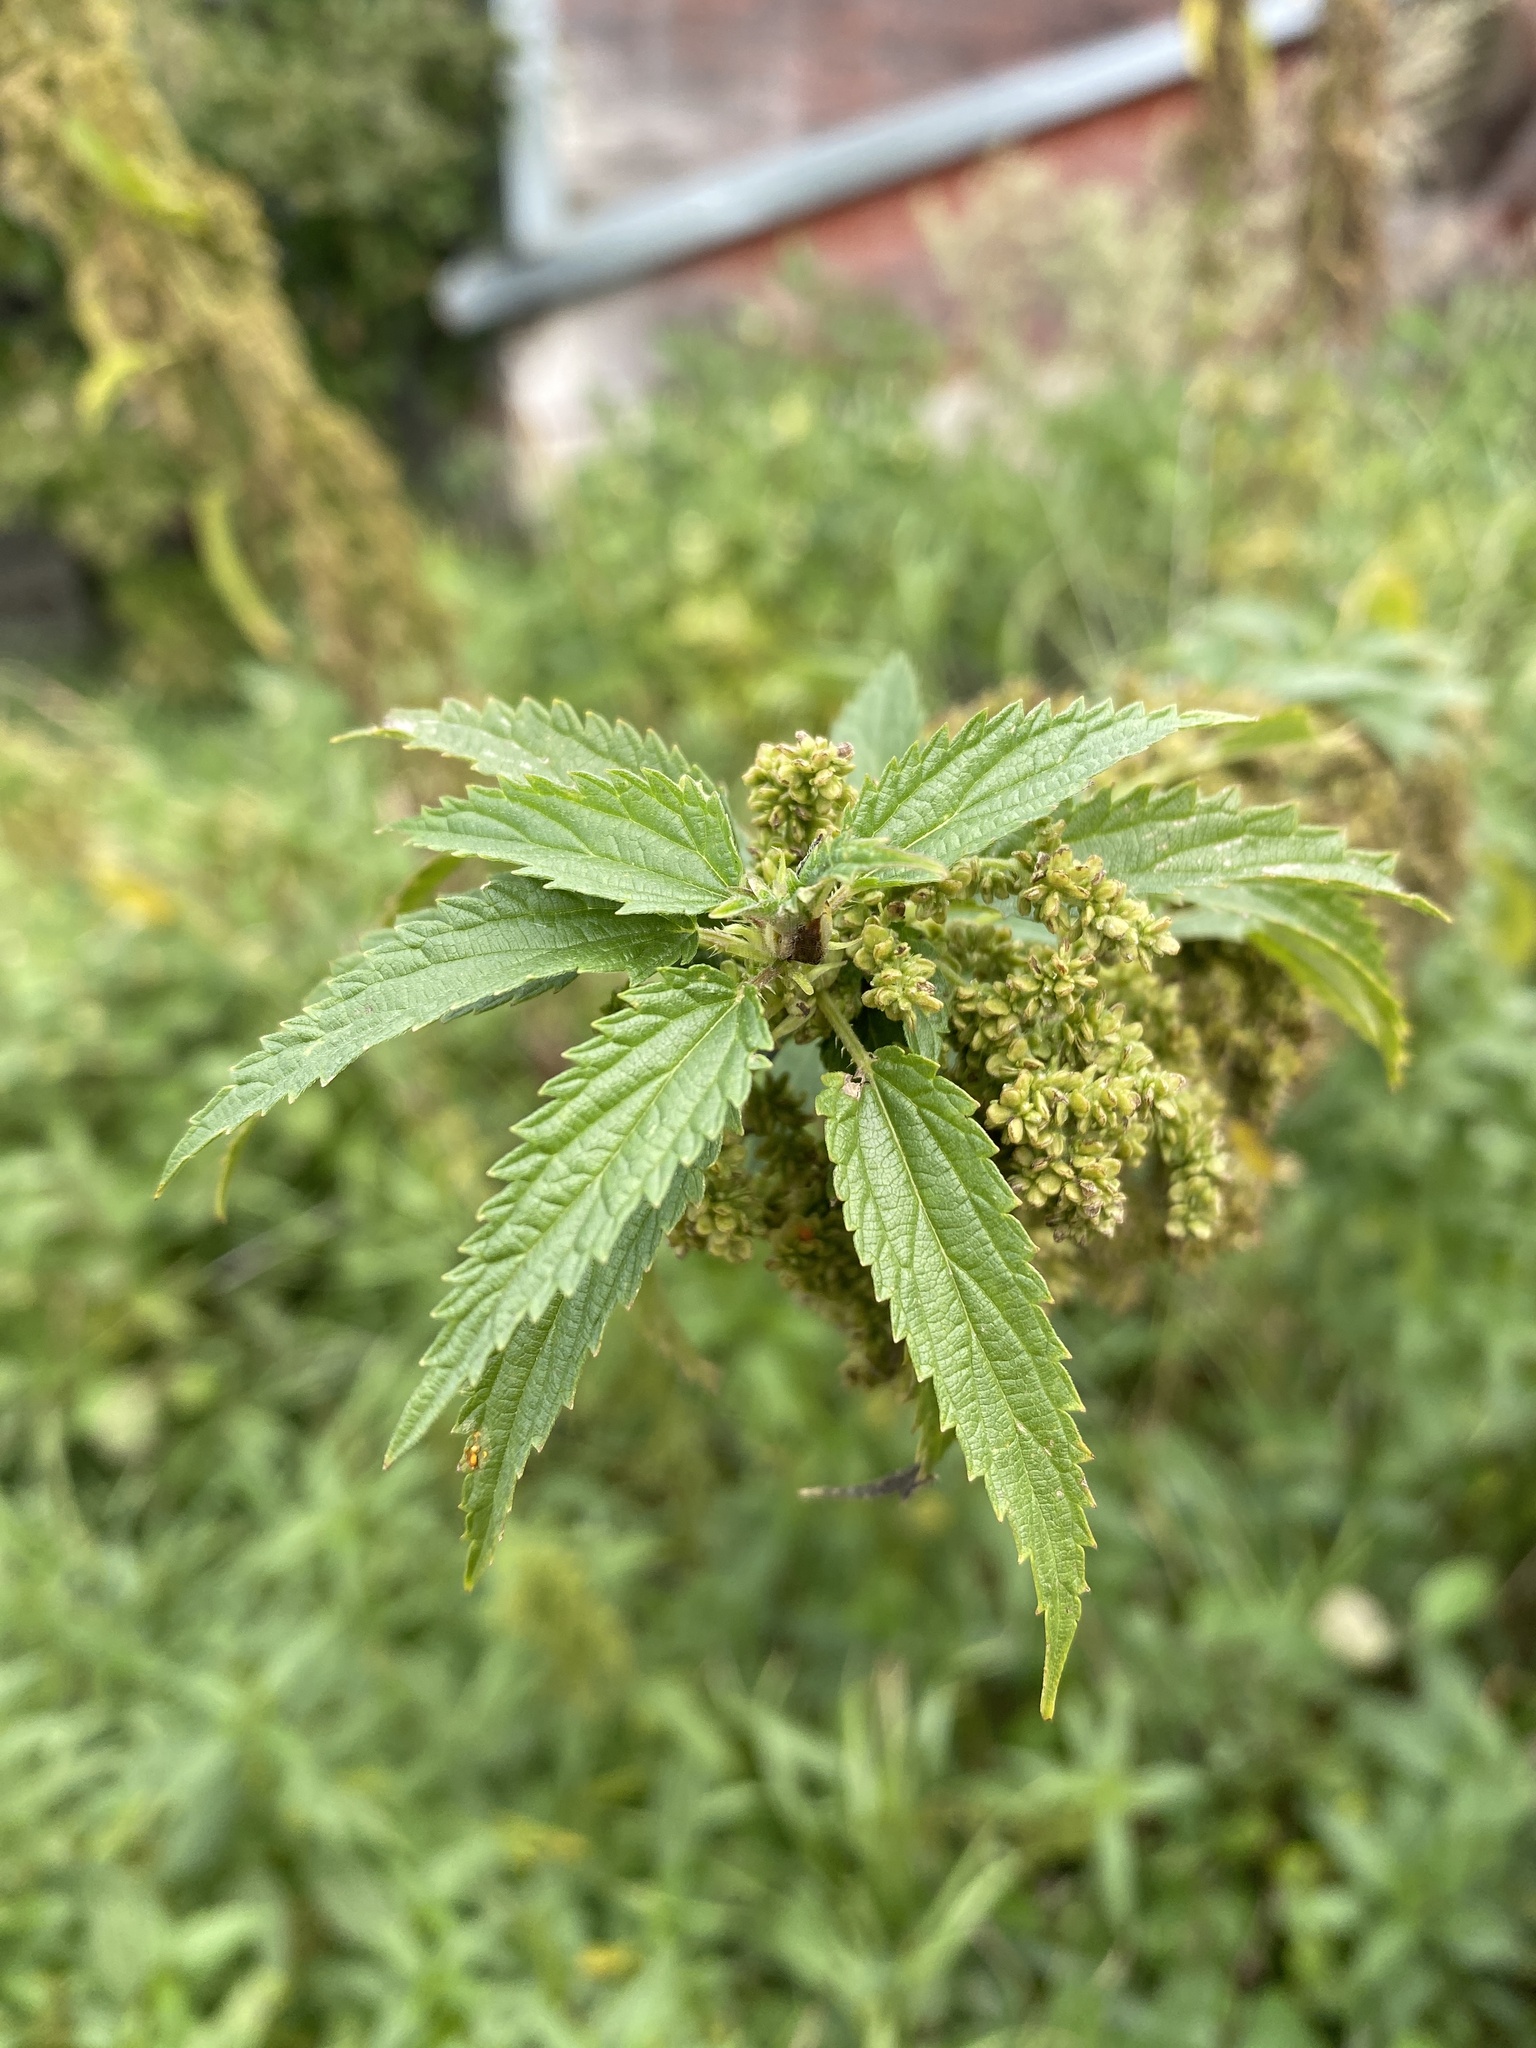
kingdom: Plantae
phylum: Tracheophyta
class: Magnoliopsida
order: Rosales
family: Urticaceae
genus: Urtica
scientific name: Urtica gracilis
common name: Slender stinging nettle
